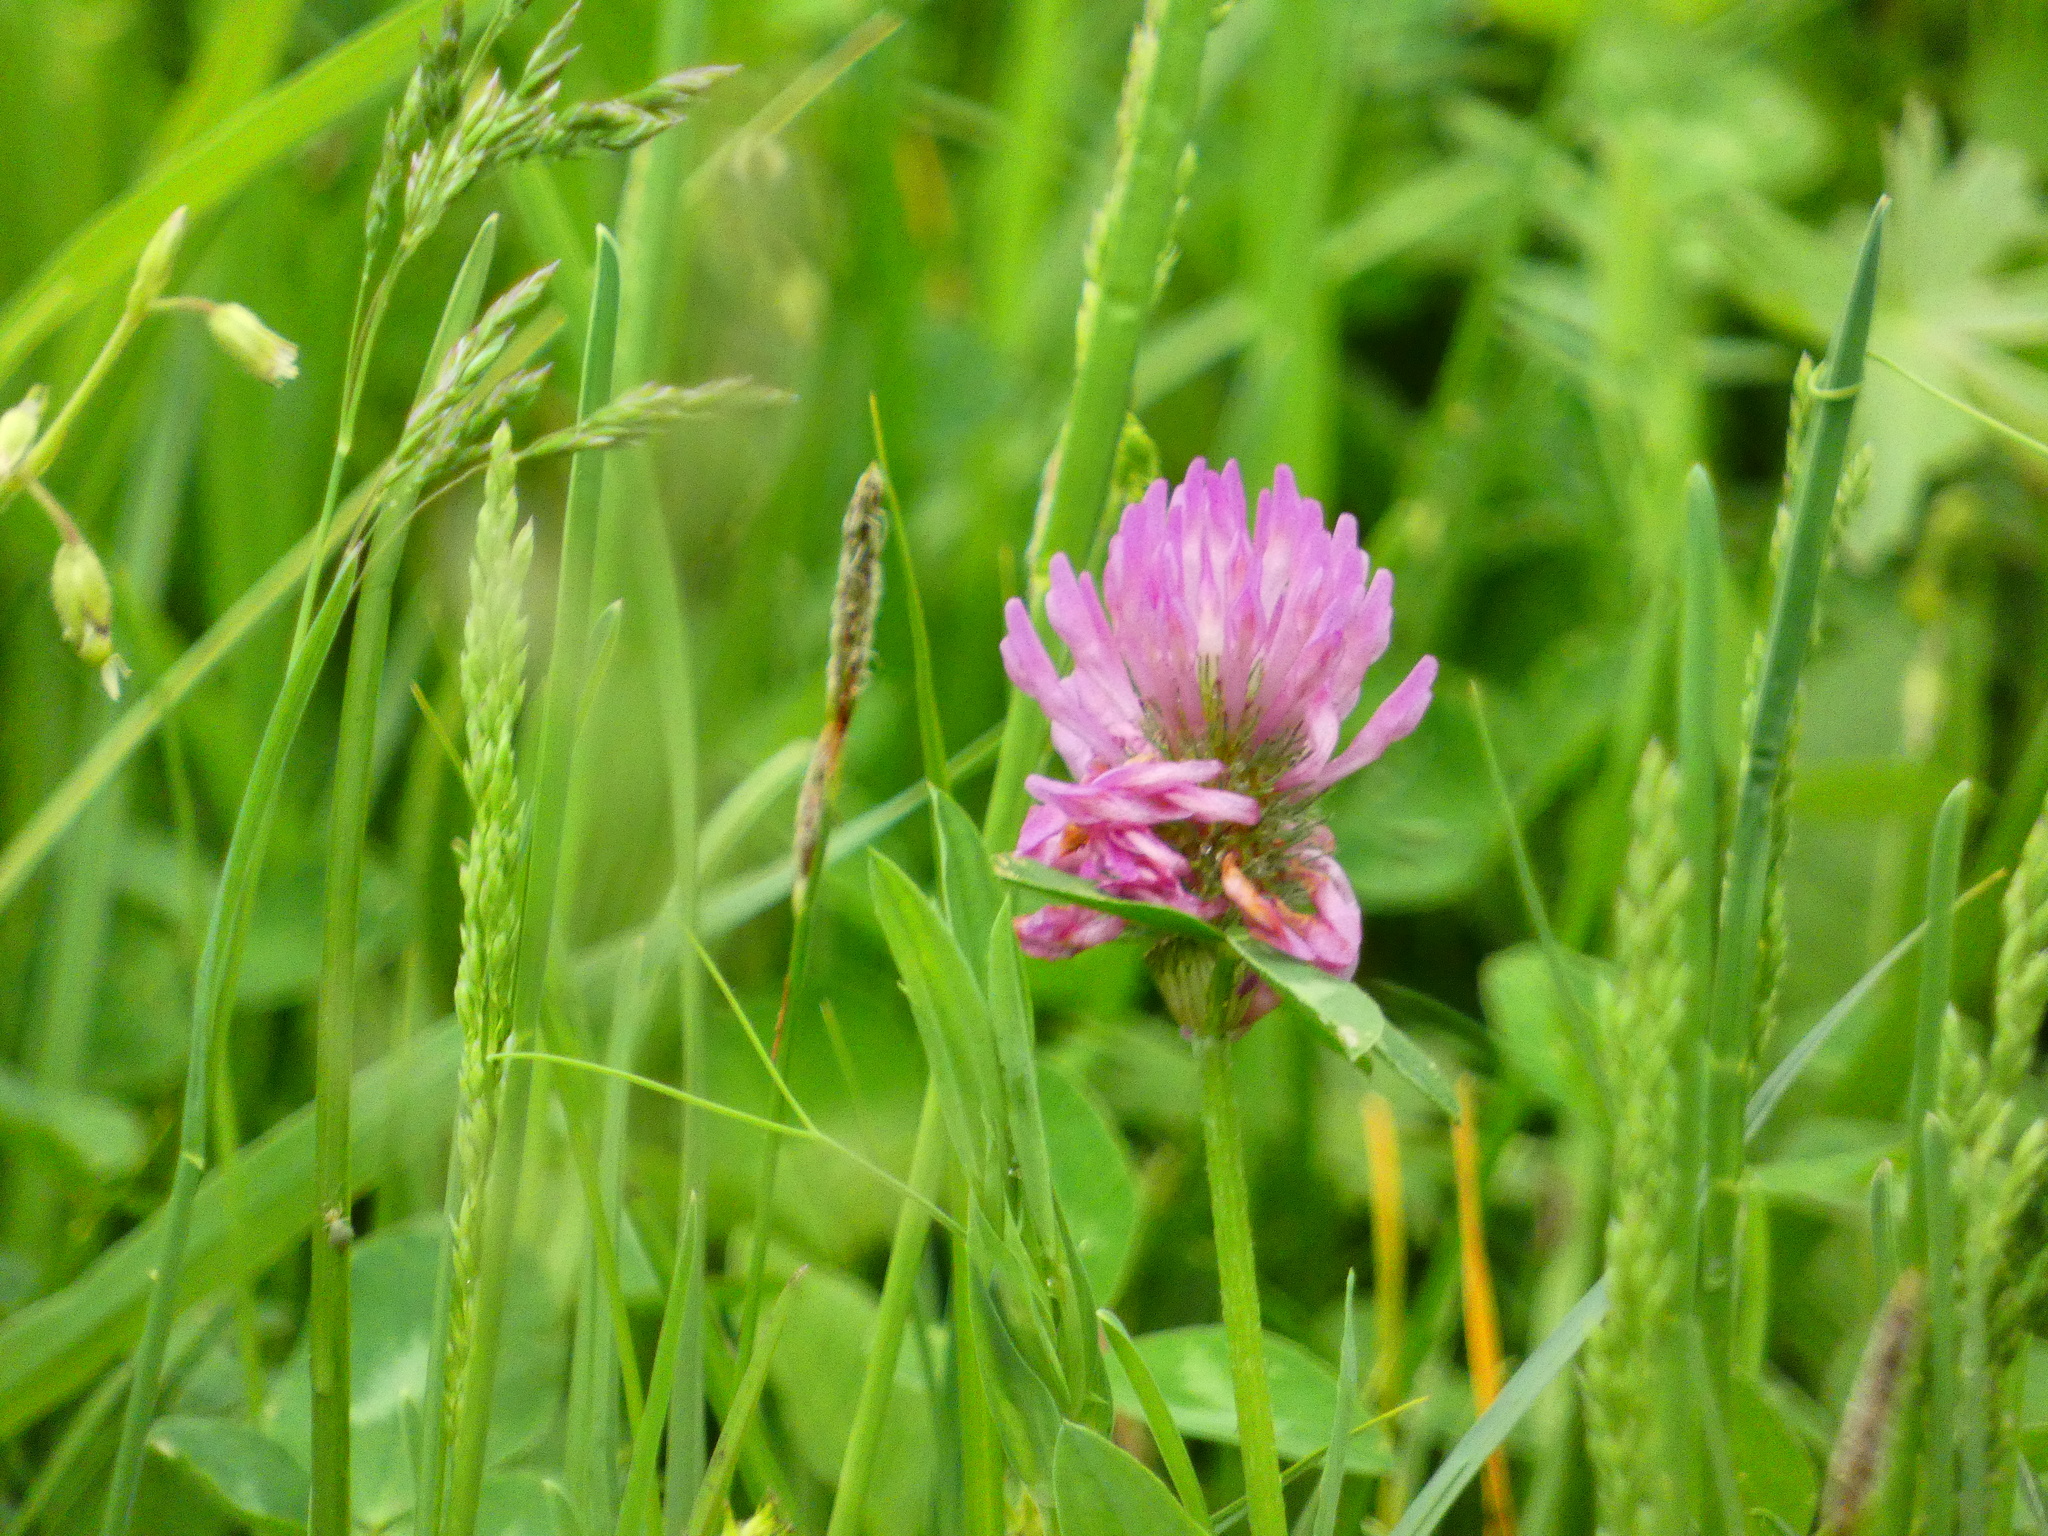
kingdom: Plantae
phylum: Tracheophyta
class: Magnoliopsida
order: Fabales
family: Fabaceae
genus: Trifolium
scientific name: Trifolium pratense
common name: Red clover
